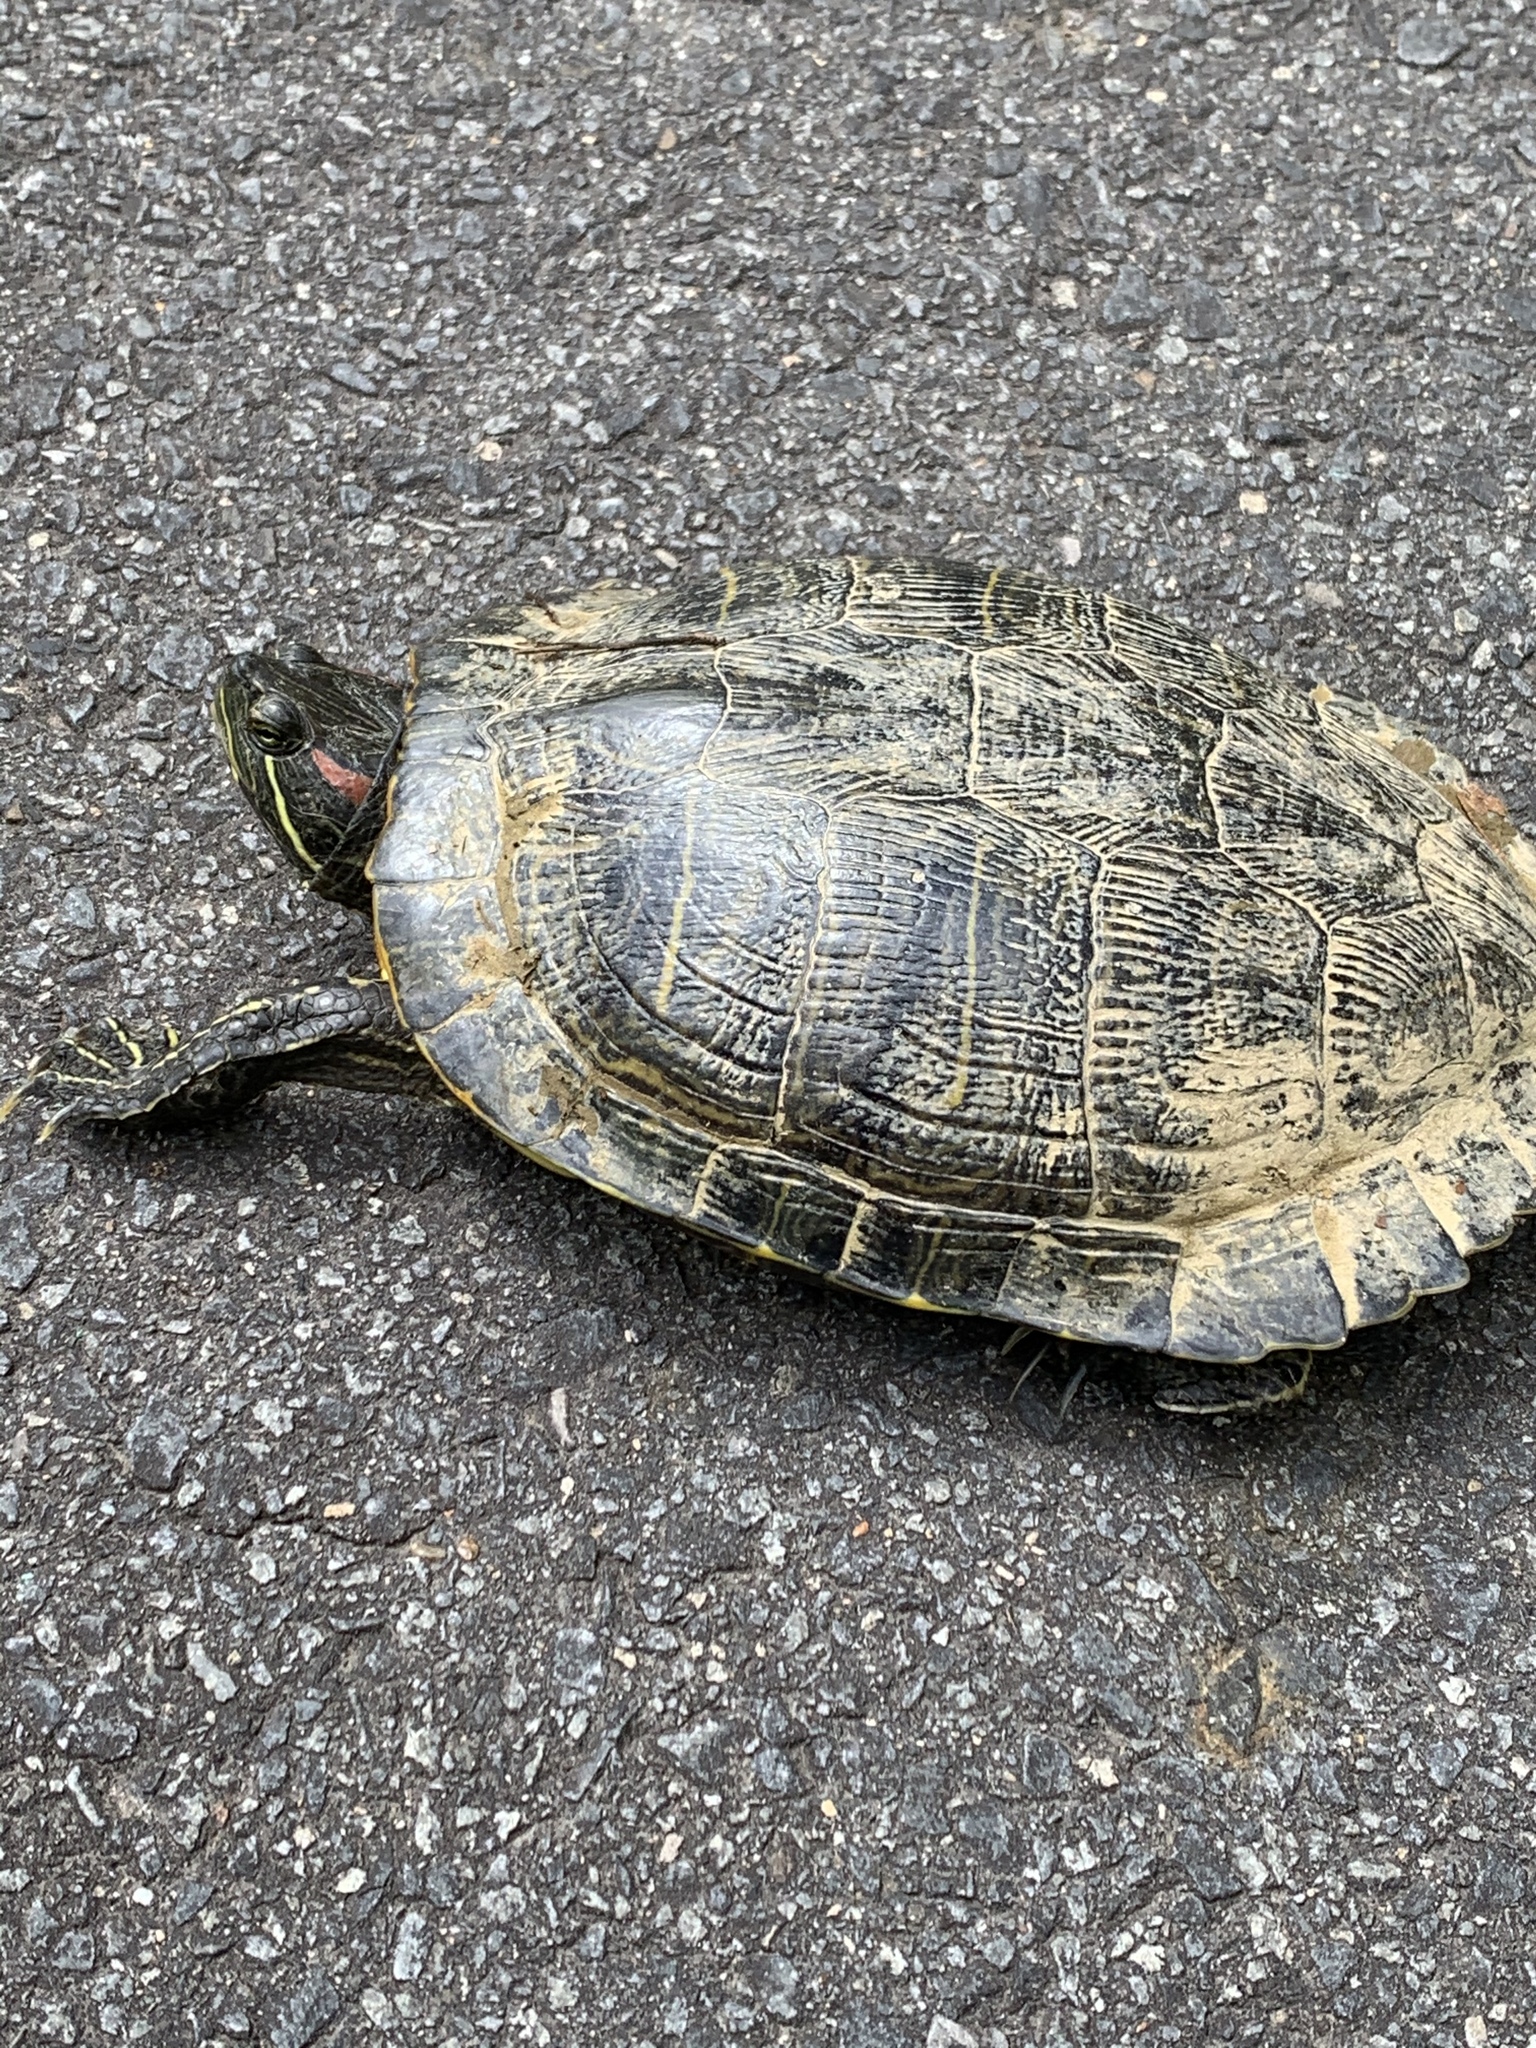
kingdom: Animalia
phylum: Chordata
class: Testudines
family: Emydidae
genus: Trachemys
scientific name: Trachemys scripta
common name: Slider
